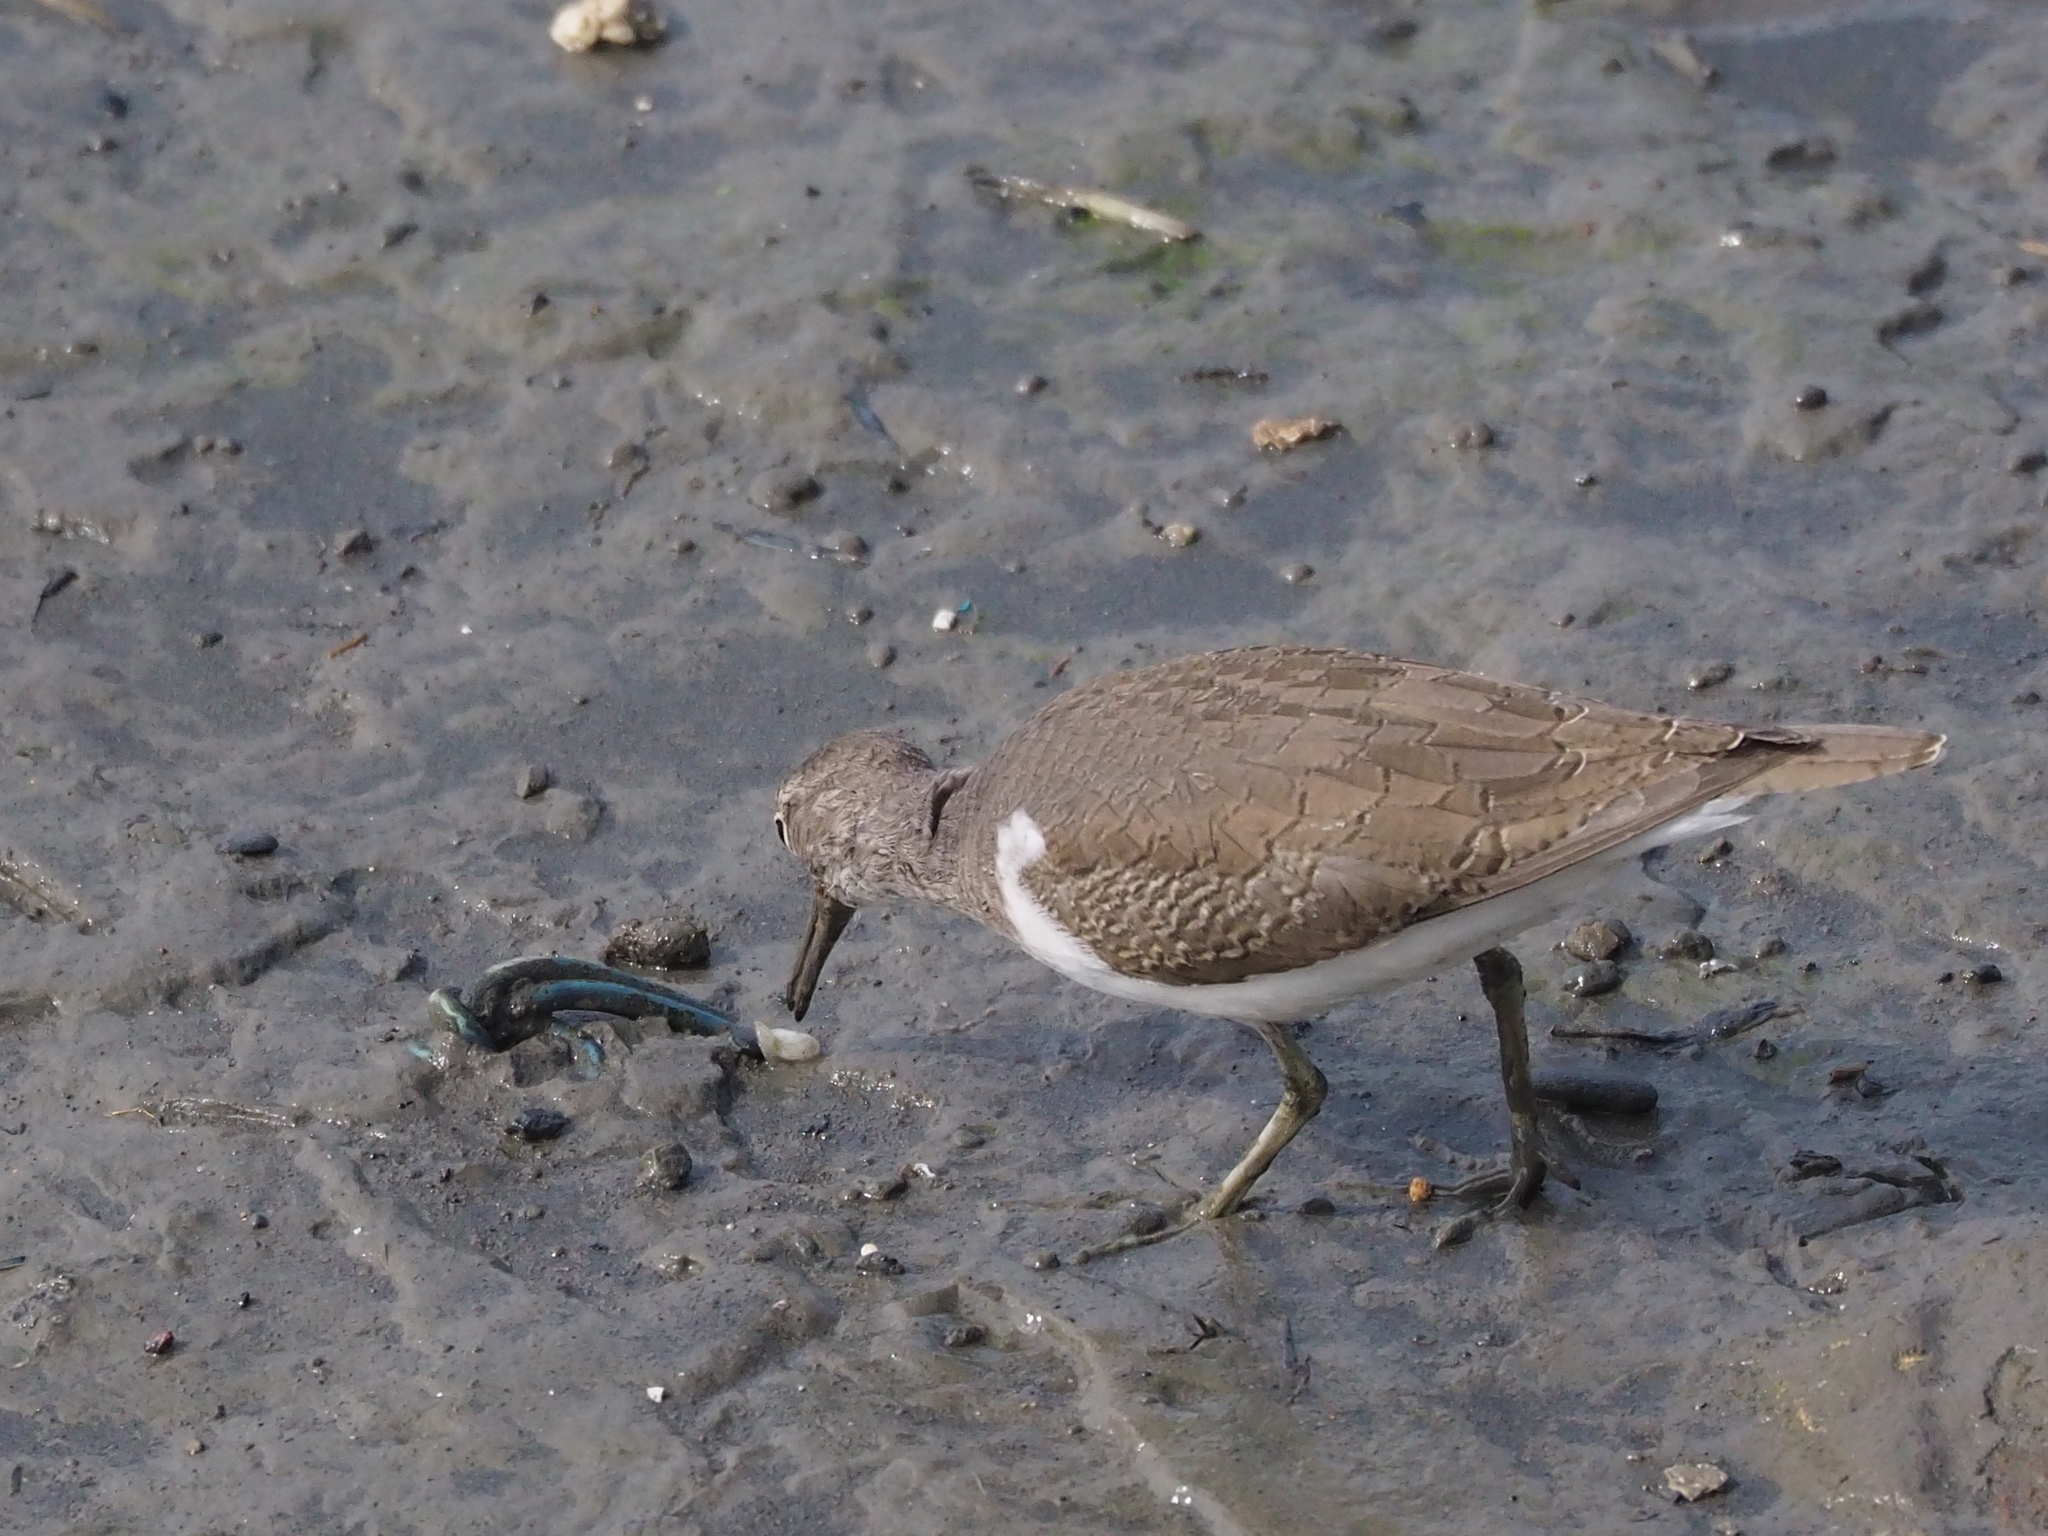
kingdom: Animalia
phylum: Chordata
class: Aves
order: Charadriiformes
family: Scolopacidae
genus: Actitis
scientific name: Actitis hypoleucos
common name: Common sandpiper
